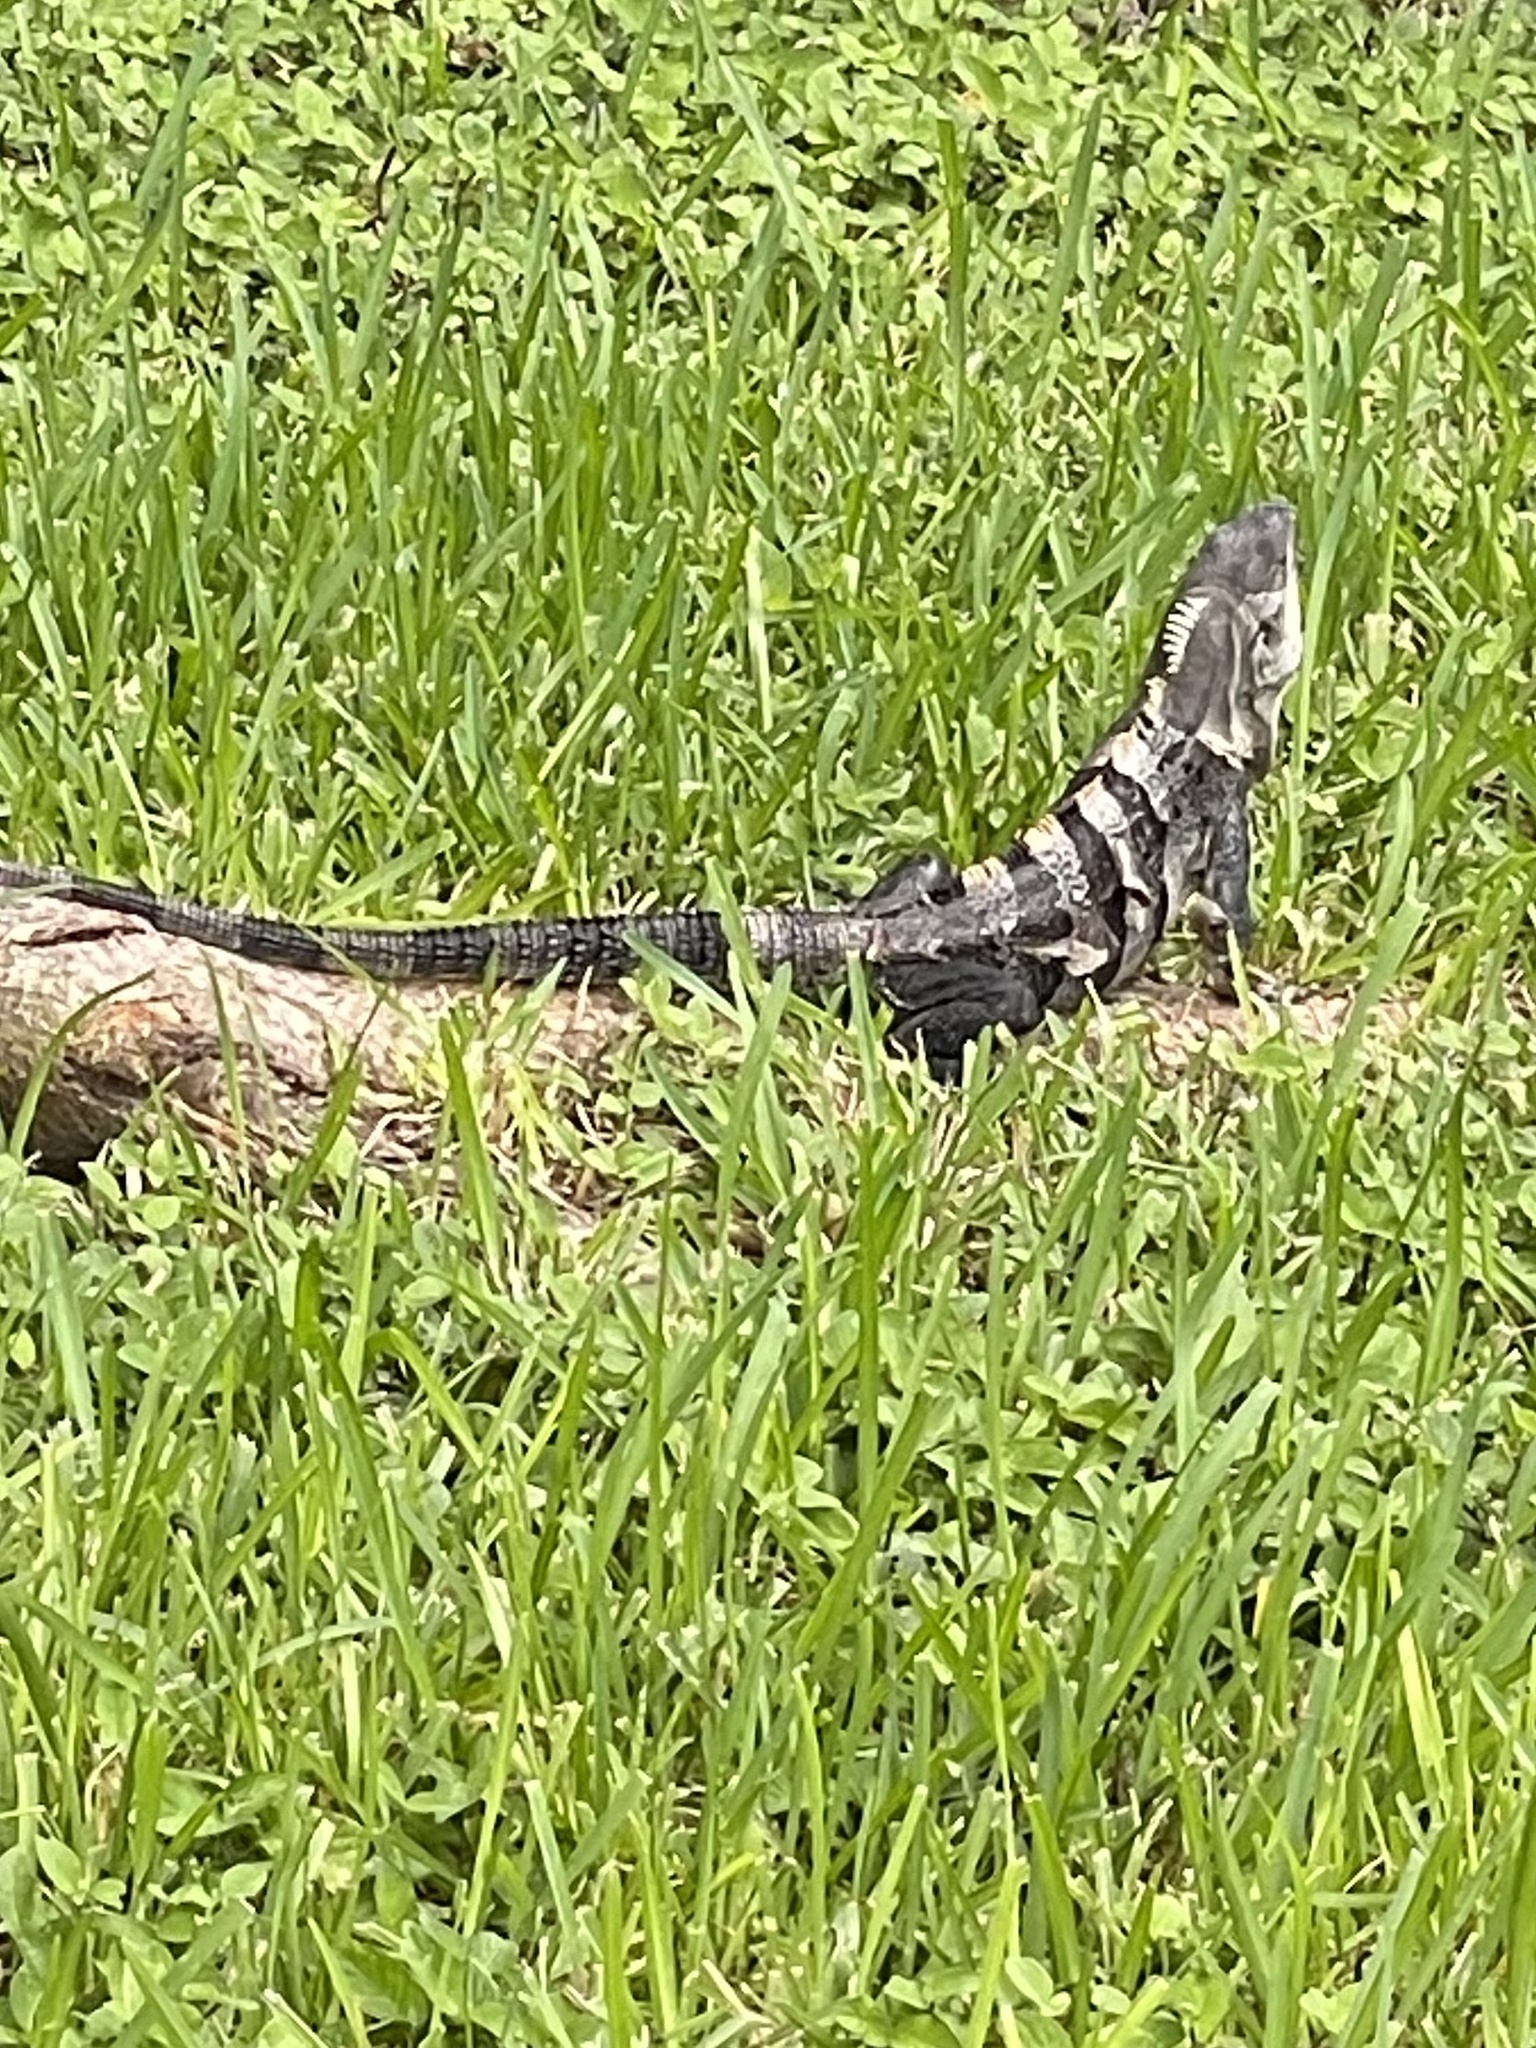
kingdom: Animalia
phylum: Chordata
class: Squamata
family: Iguanidae
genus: Ctenosaura
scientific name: Ctenosaura similis
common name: Black spiny-tailed iguana
